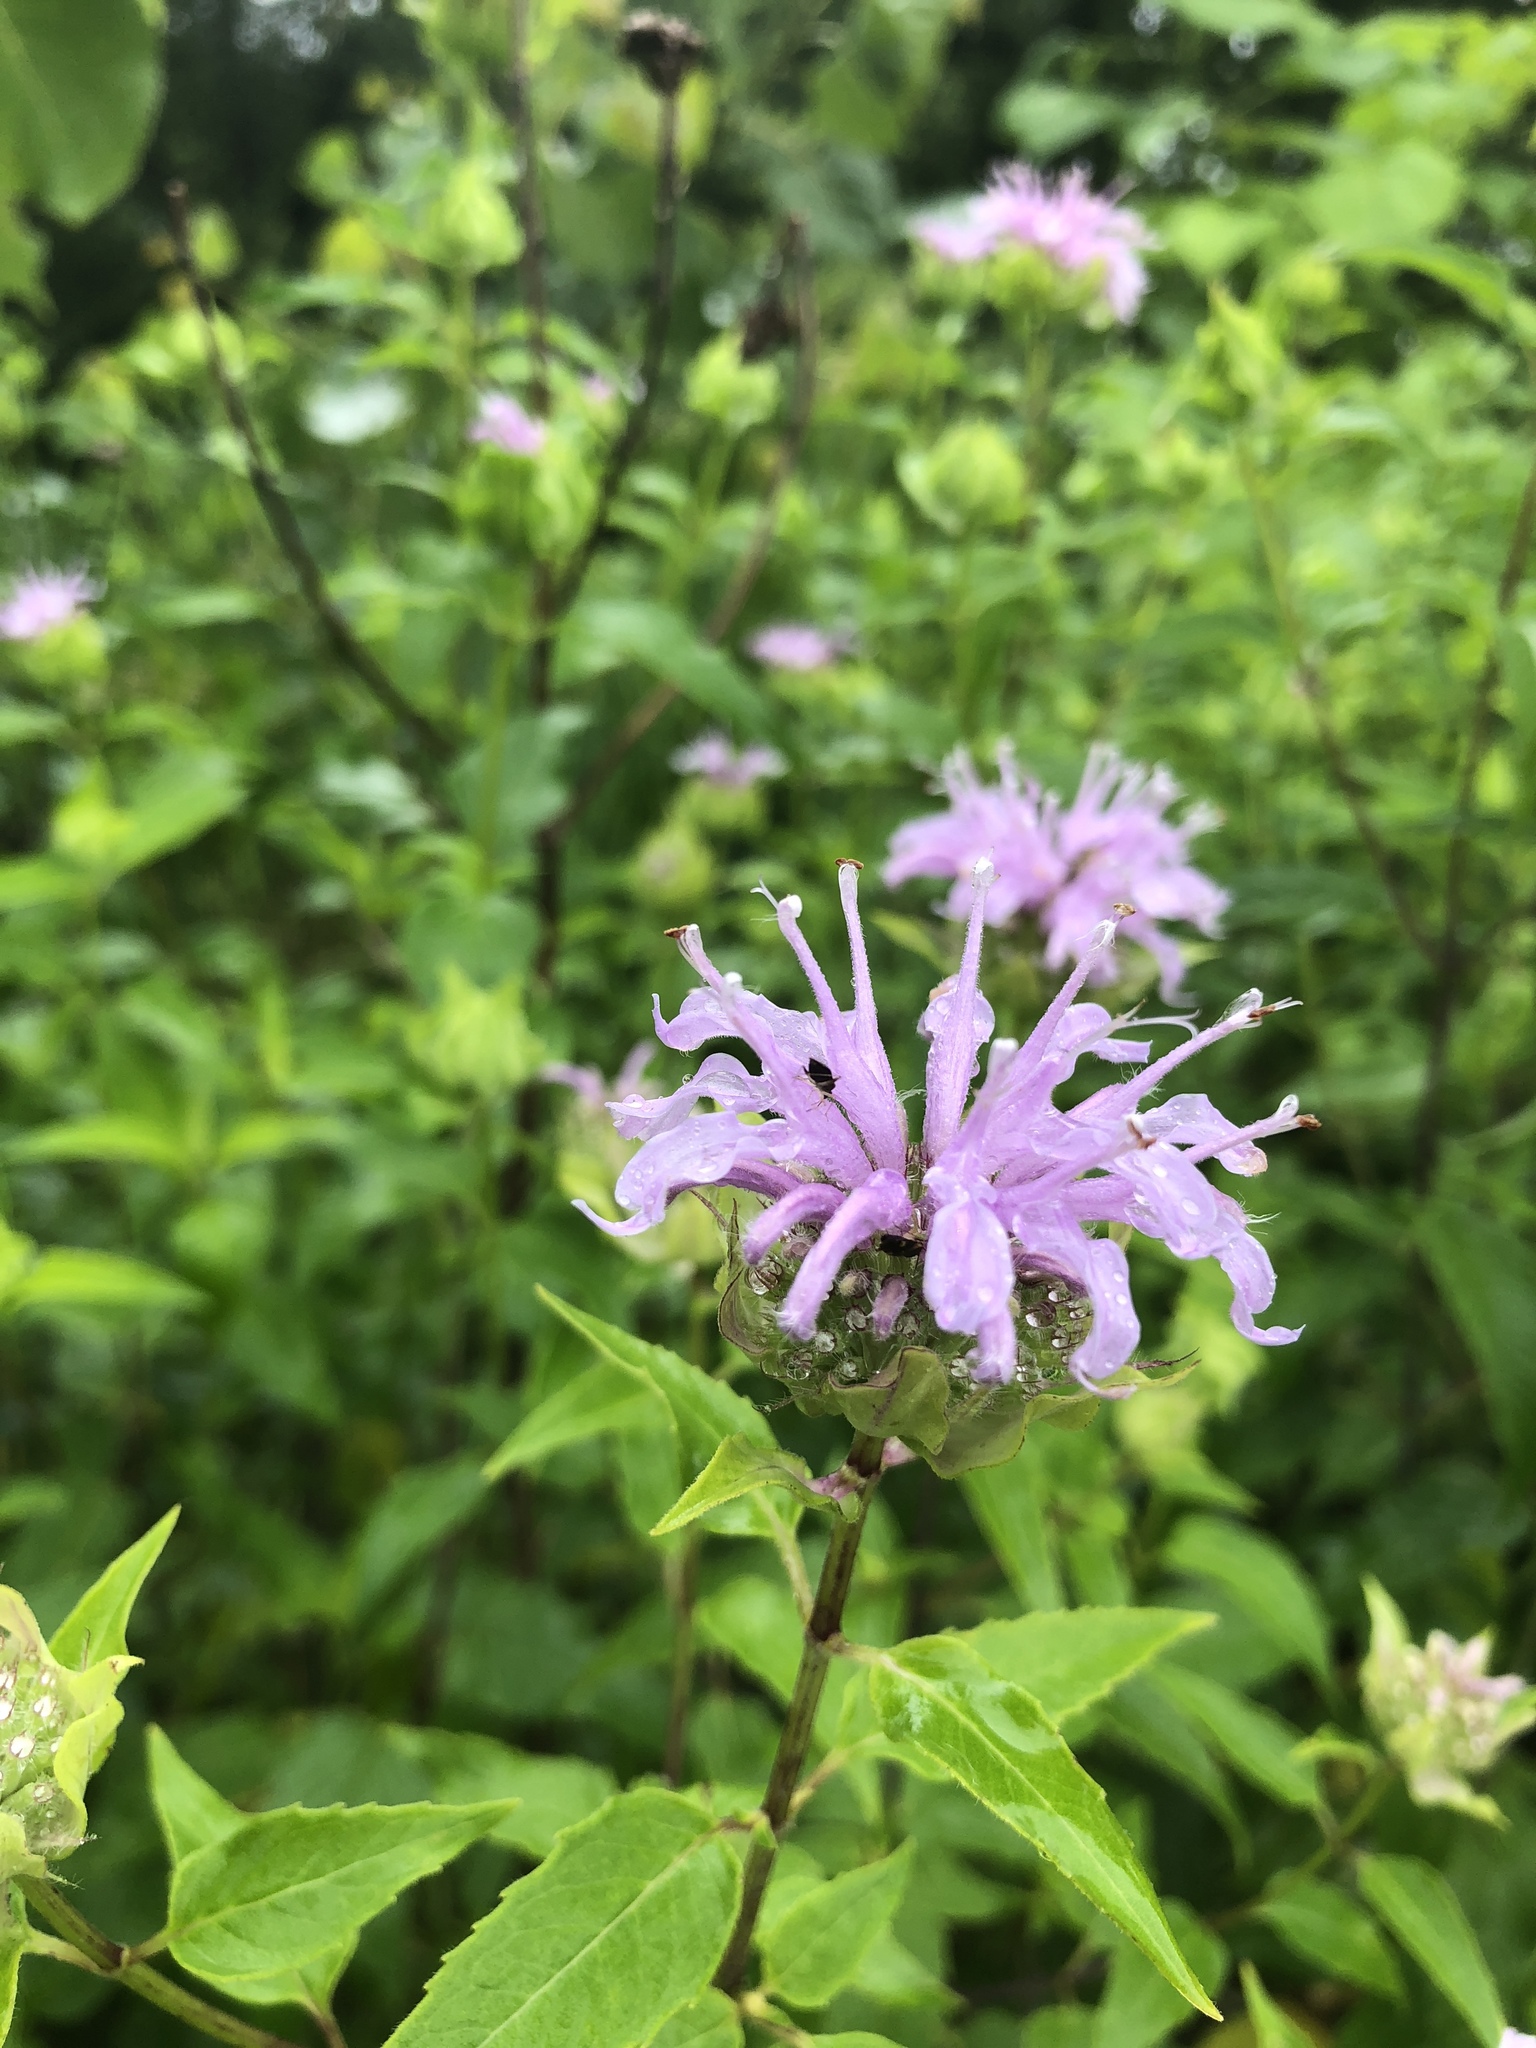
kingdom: Plantae
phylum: Tracheophyta
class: Magnoliopsida
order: Lamiales
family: Lamiaceae
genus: Monarda
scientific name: Monarda fistulosa
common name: Purple beebalm
